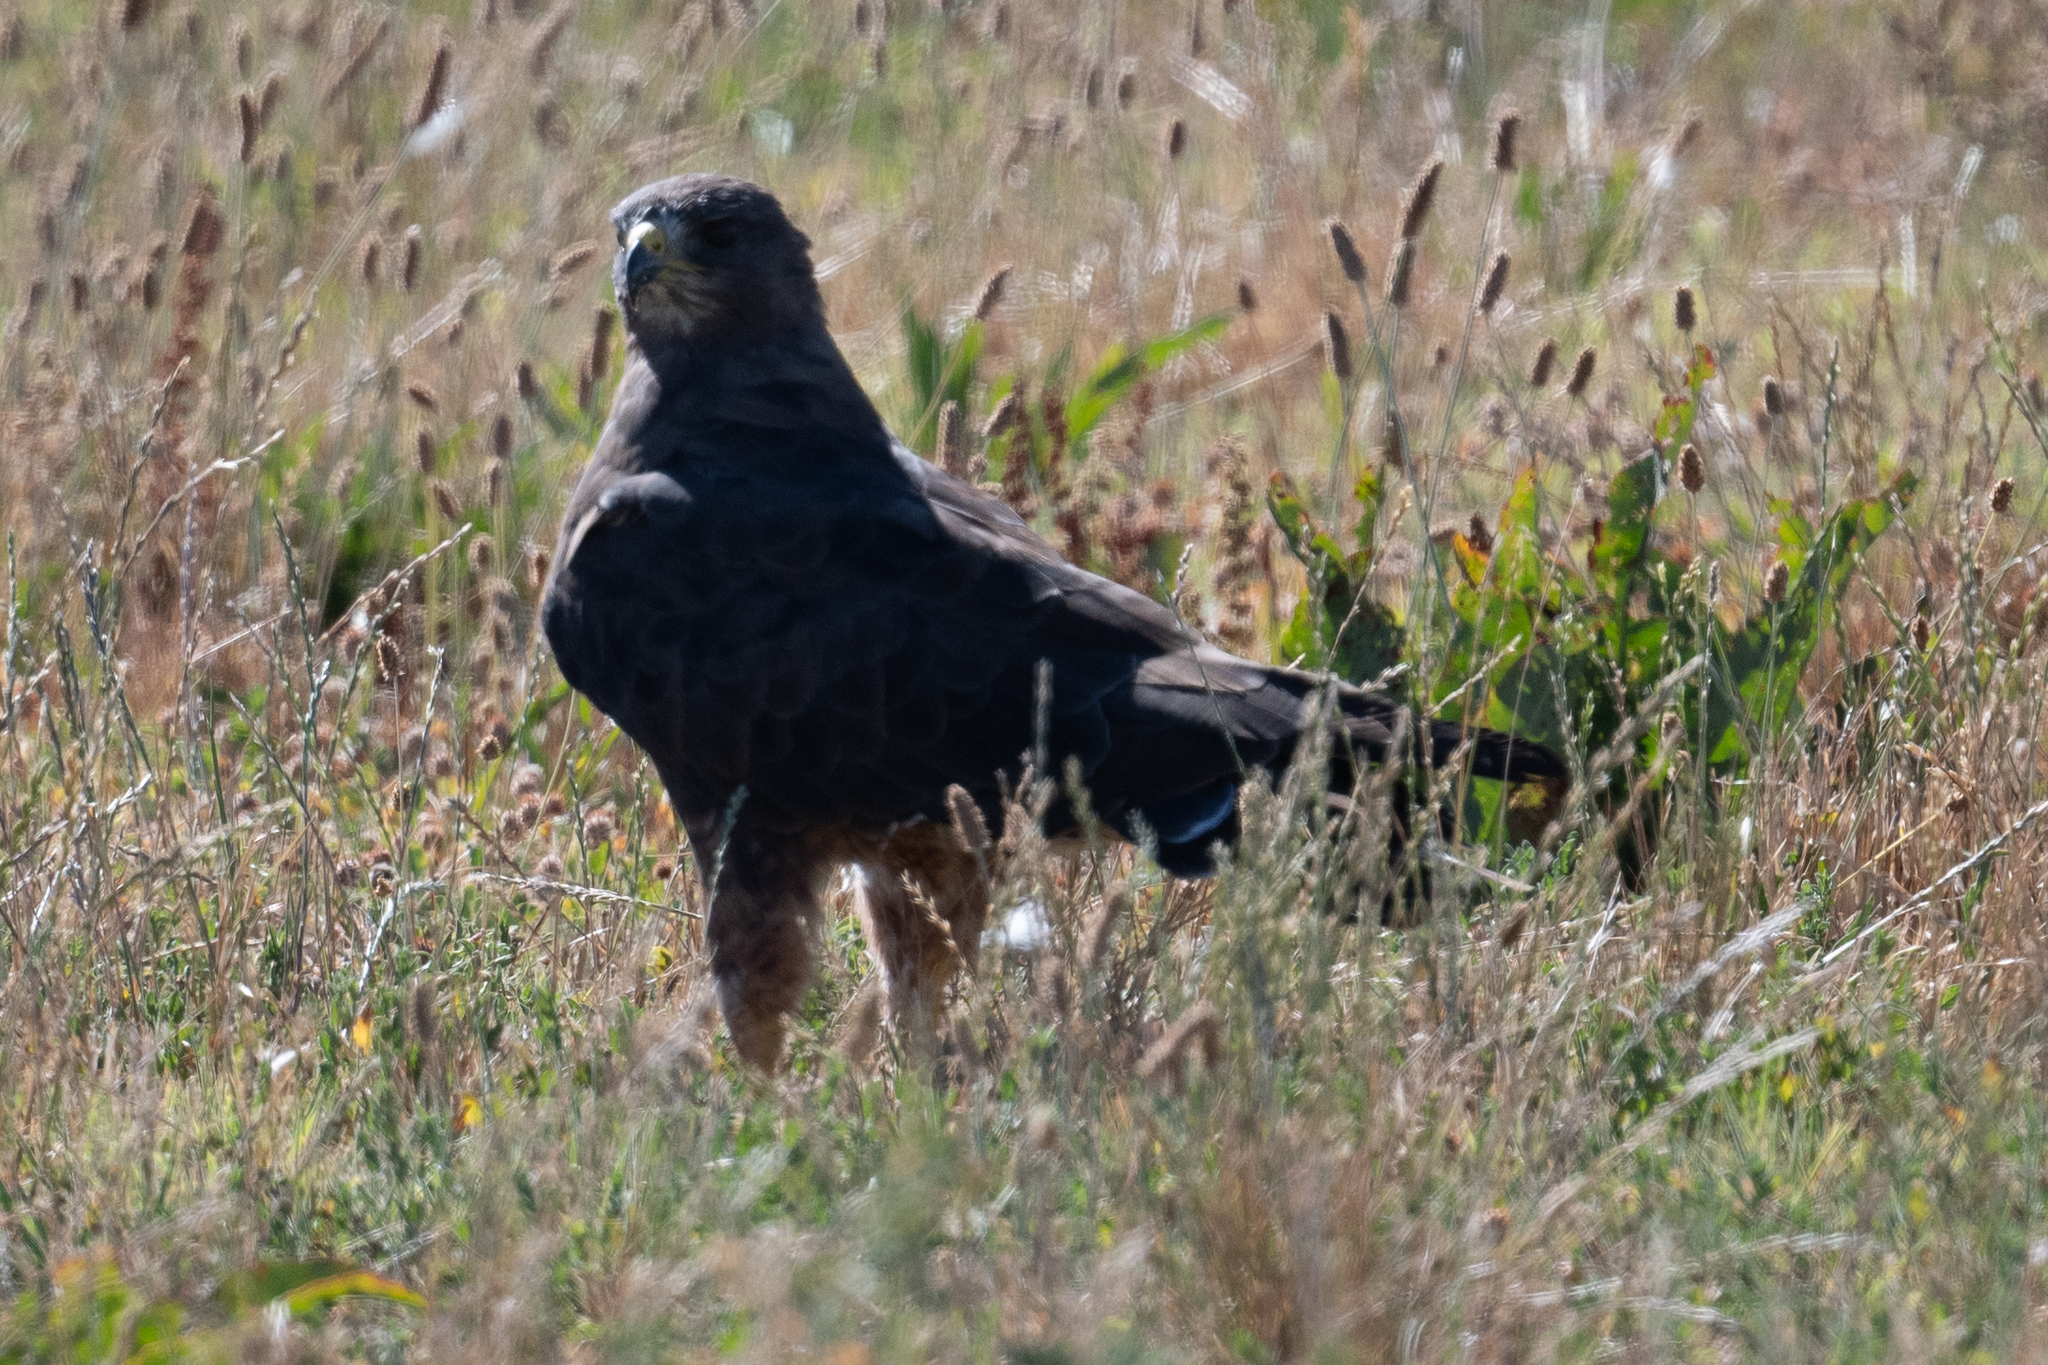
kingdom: Animalia
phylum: Chordata
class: Aves
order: Accipitriformes
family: Accipitridae
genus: Buteo
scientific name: Buteo swainsoni
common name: Swainson's hawk
